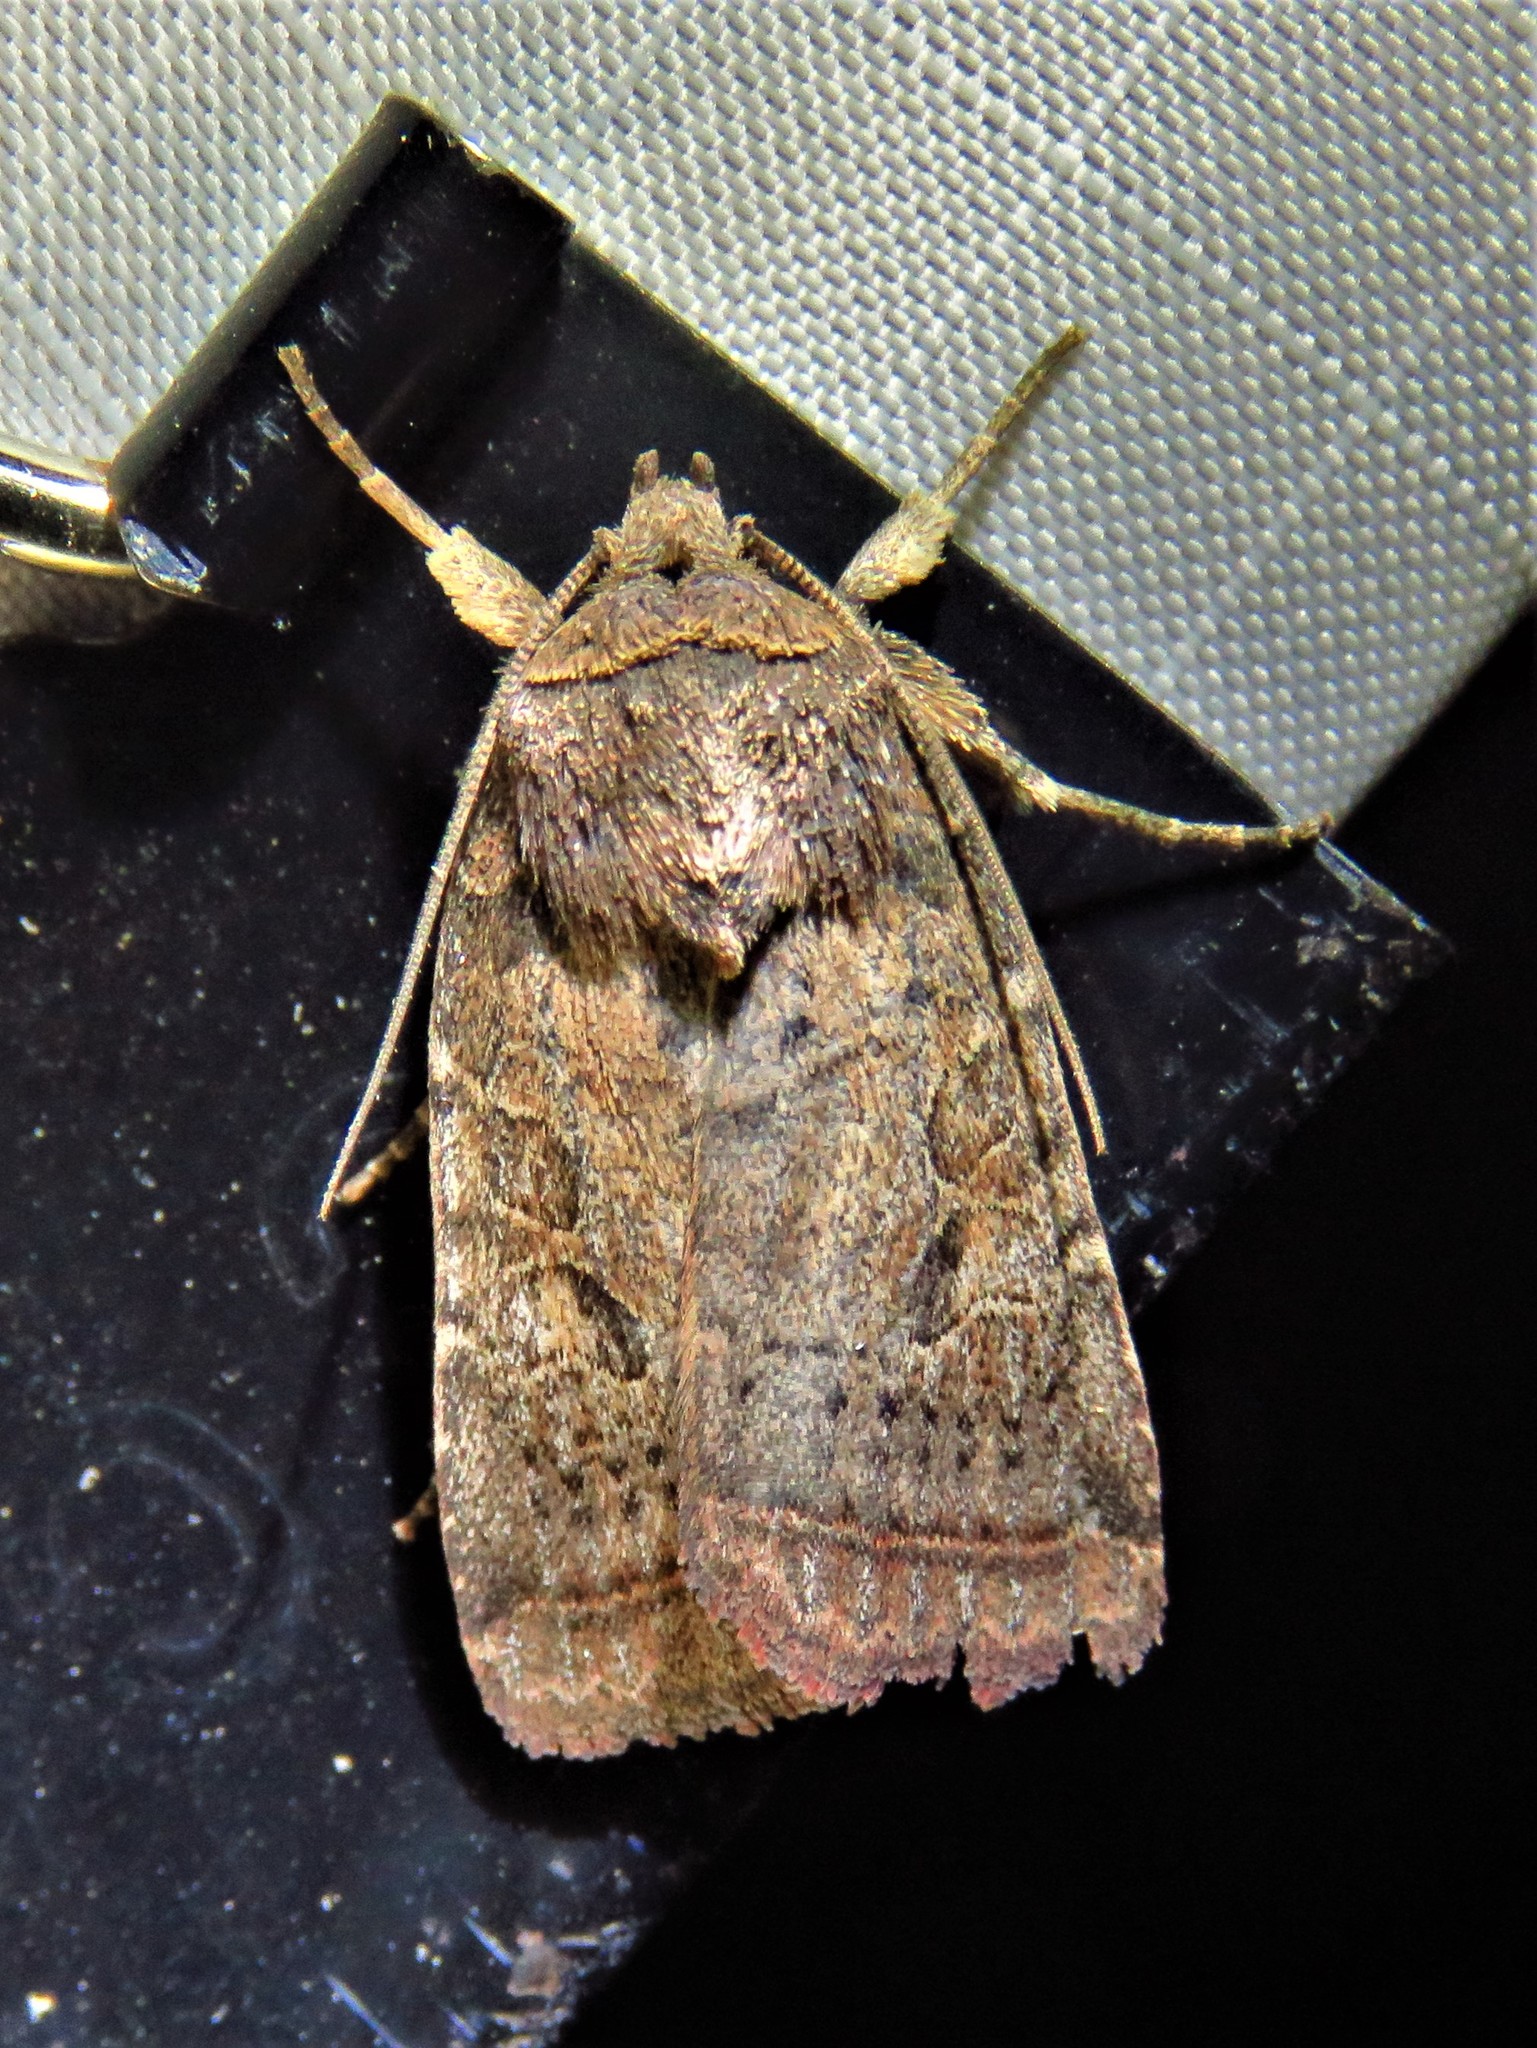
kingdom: Animalia
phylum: Arthropoda
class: Insecta
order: Lepidoptera
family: Noctuidae
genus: Orthodes
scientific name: Orthodes furtiva
